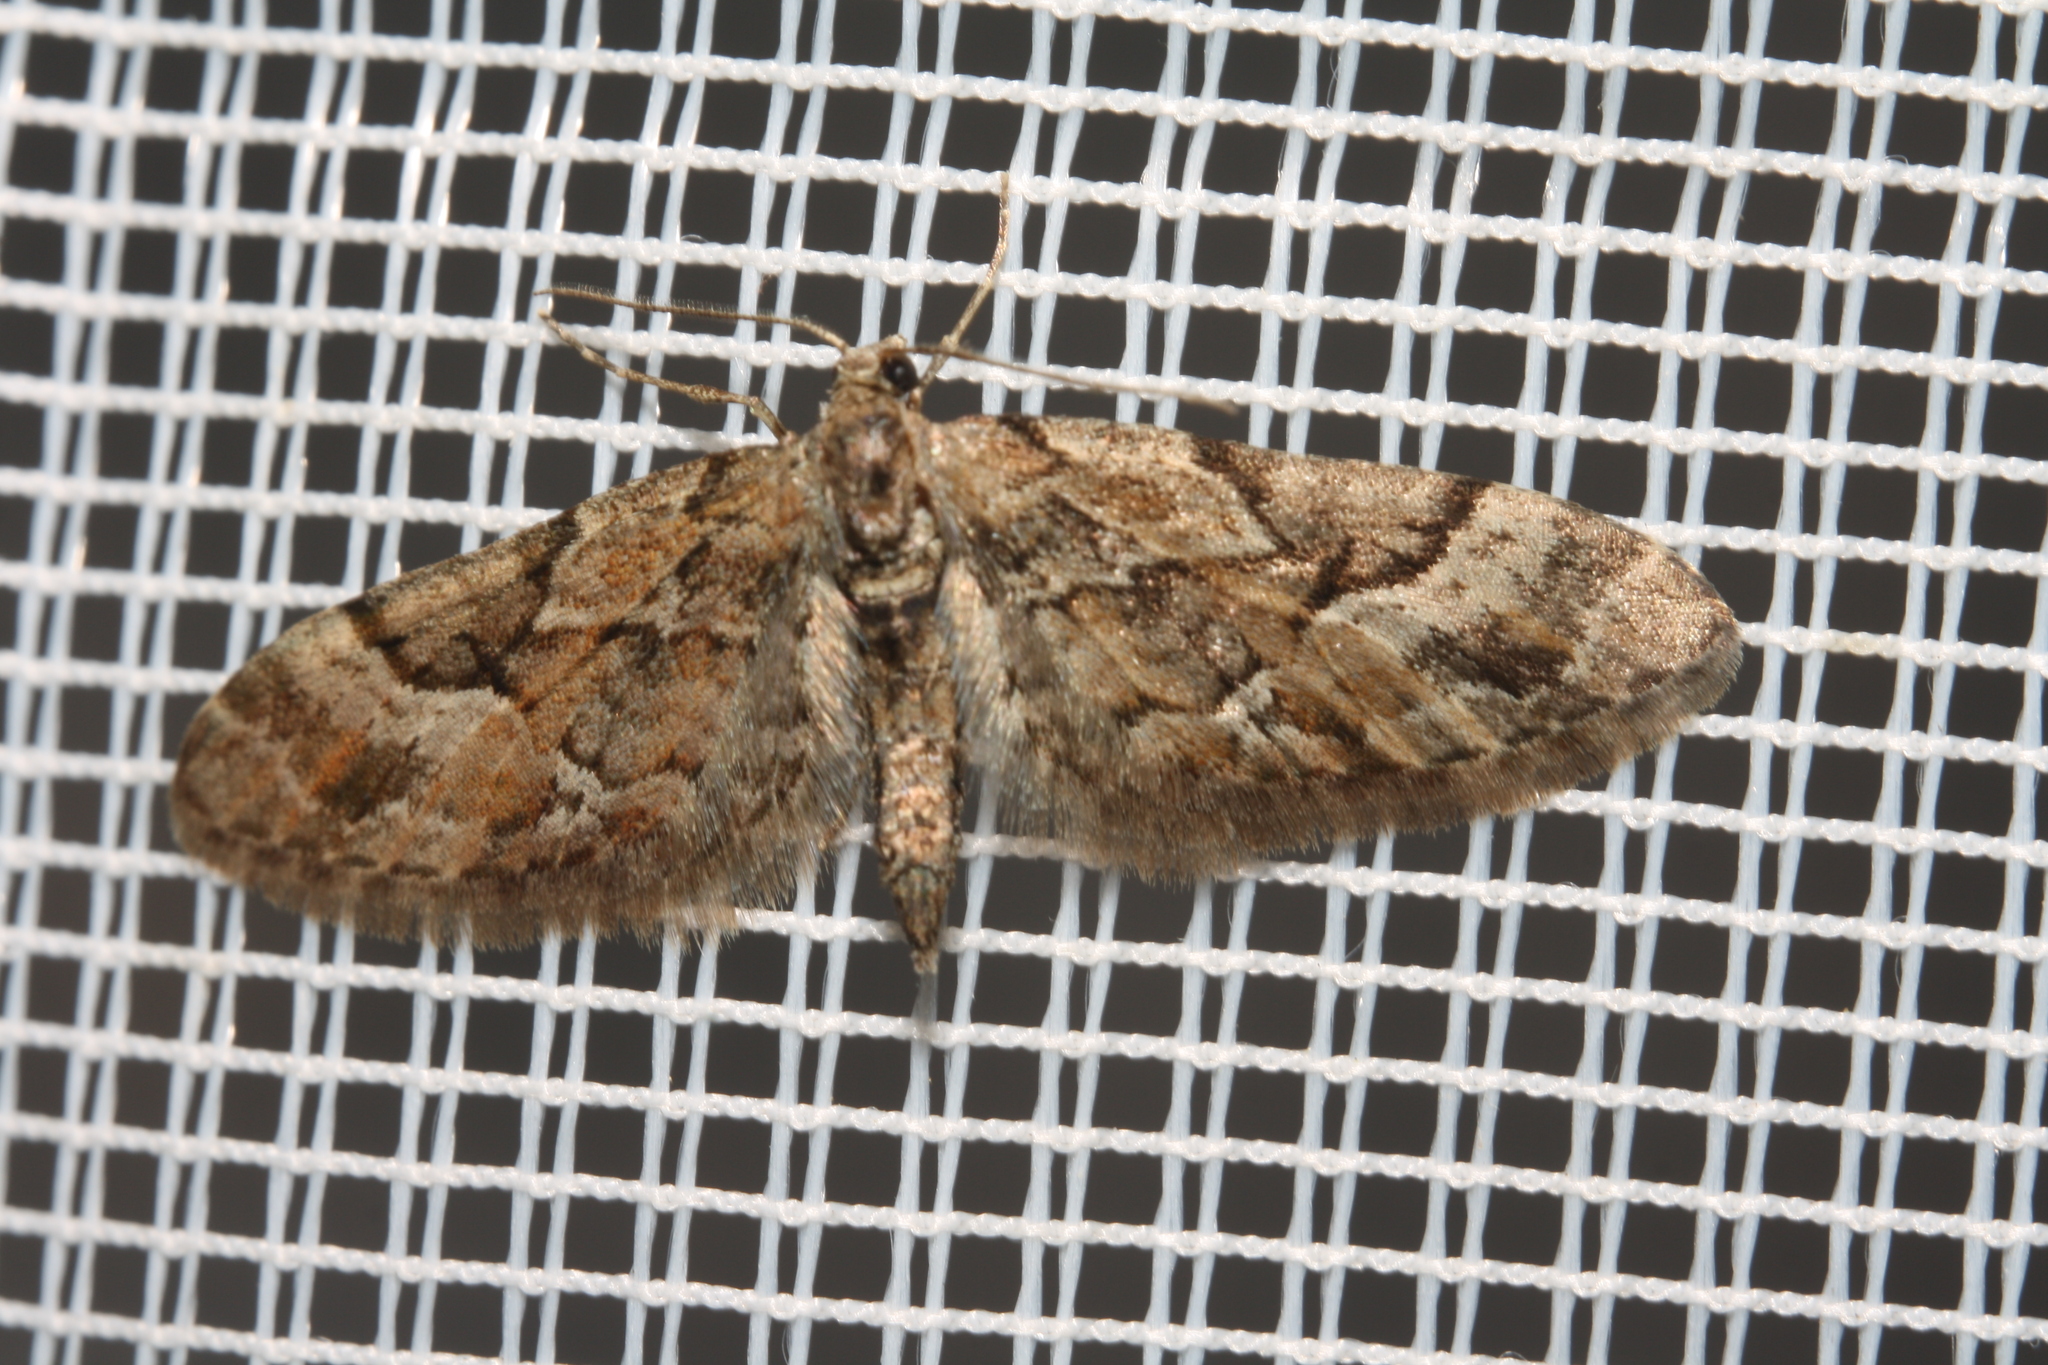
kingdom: Animalia
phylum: Arthropoda
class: Insecta
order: Lepidoptera
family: Geometridae
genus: Eupithecia
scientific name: Eupithecia lanceata
